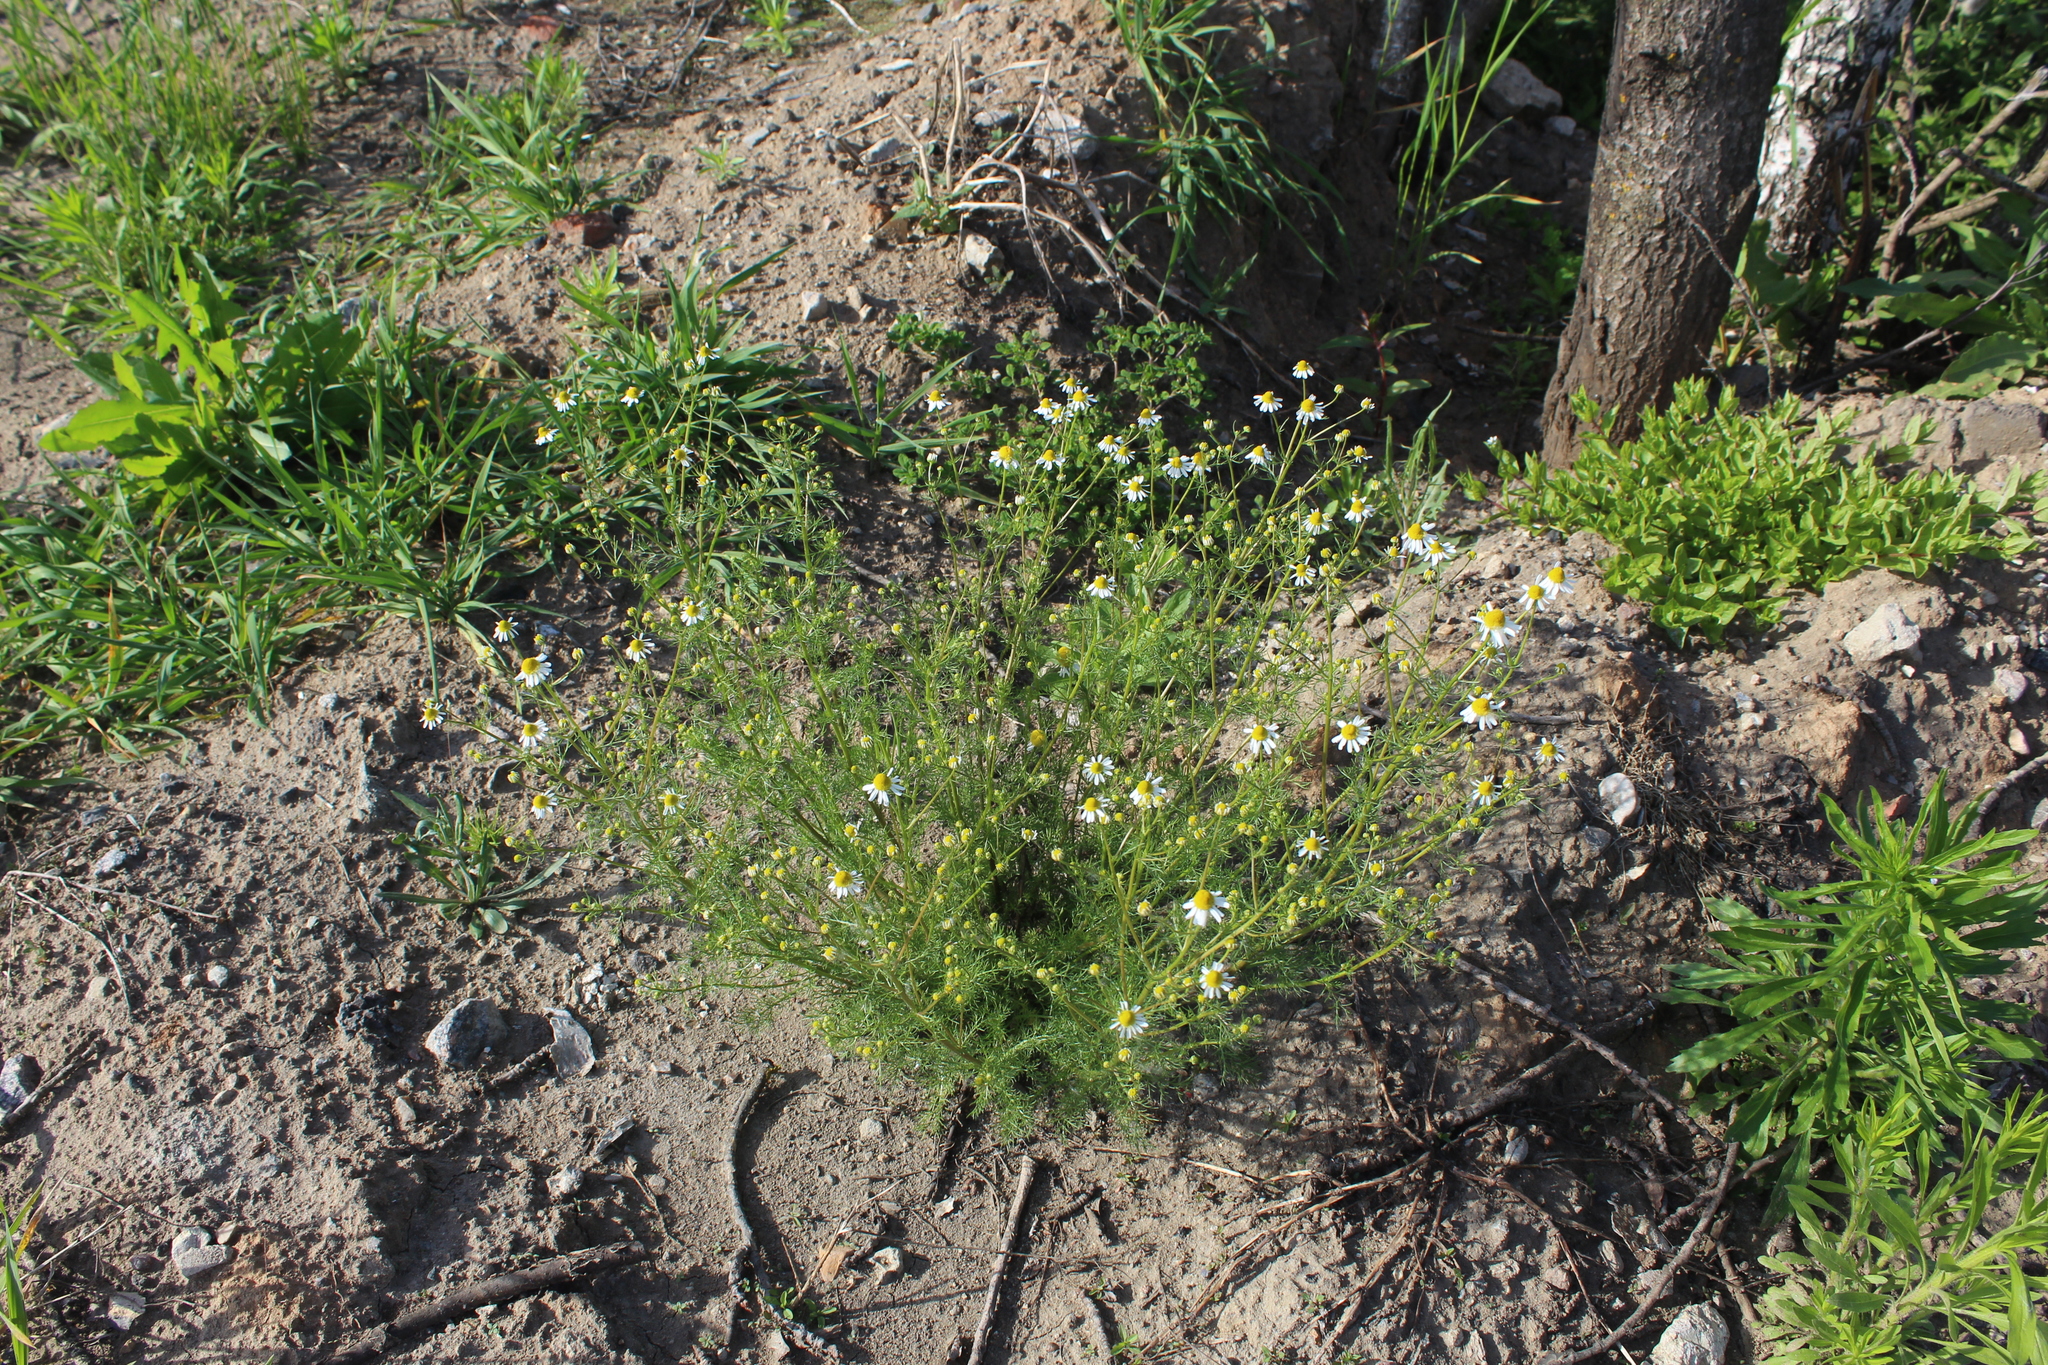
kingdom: Plantae
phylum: Tracheophyta
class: Magnoliopsida
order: Asterales
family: Asteraceae
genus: Matricaria
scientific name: Matricaria chamomilla
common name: Scented mayweed
